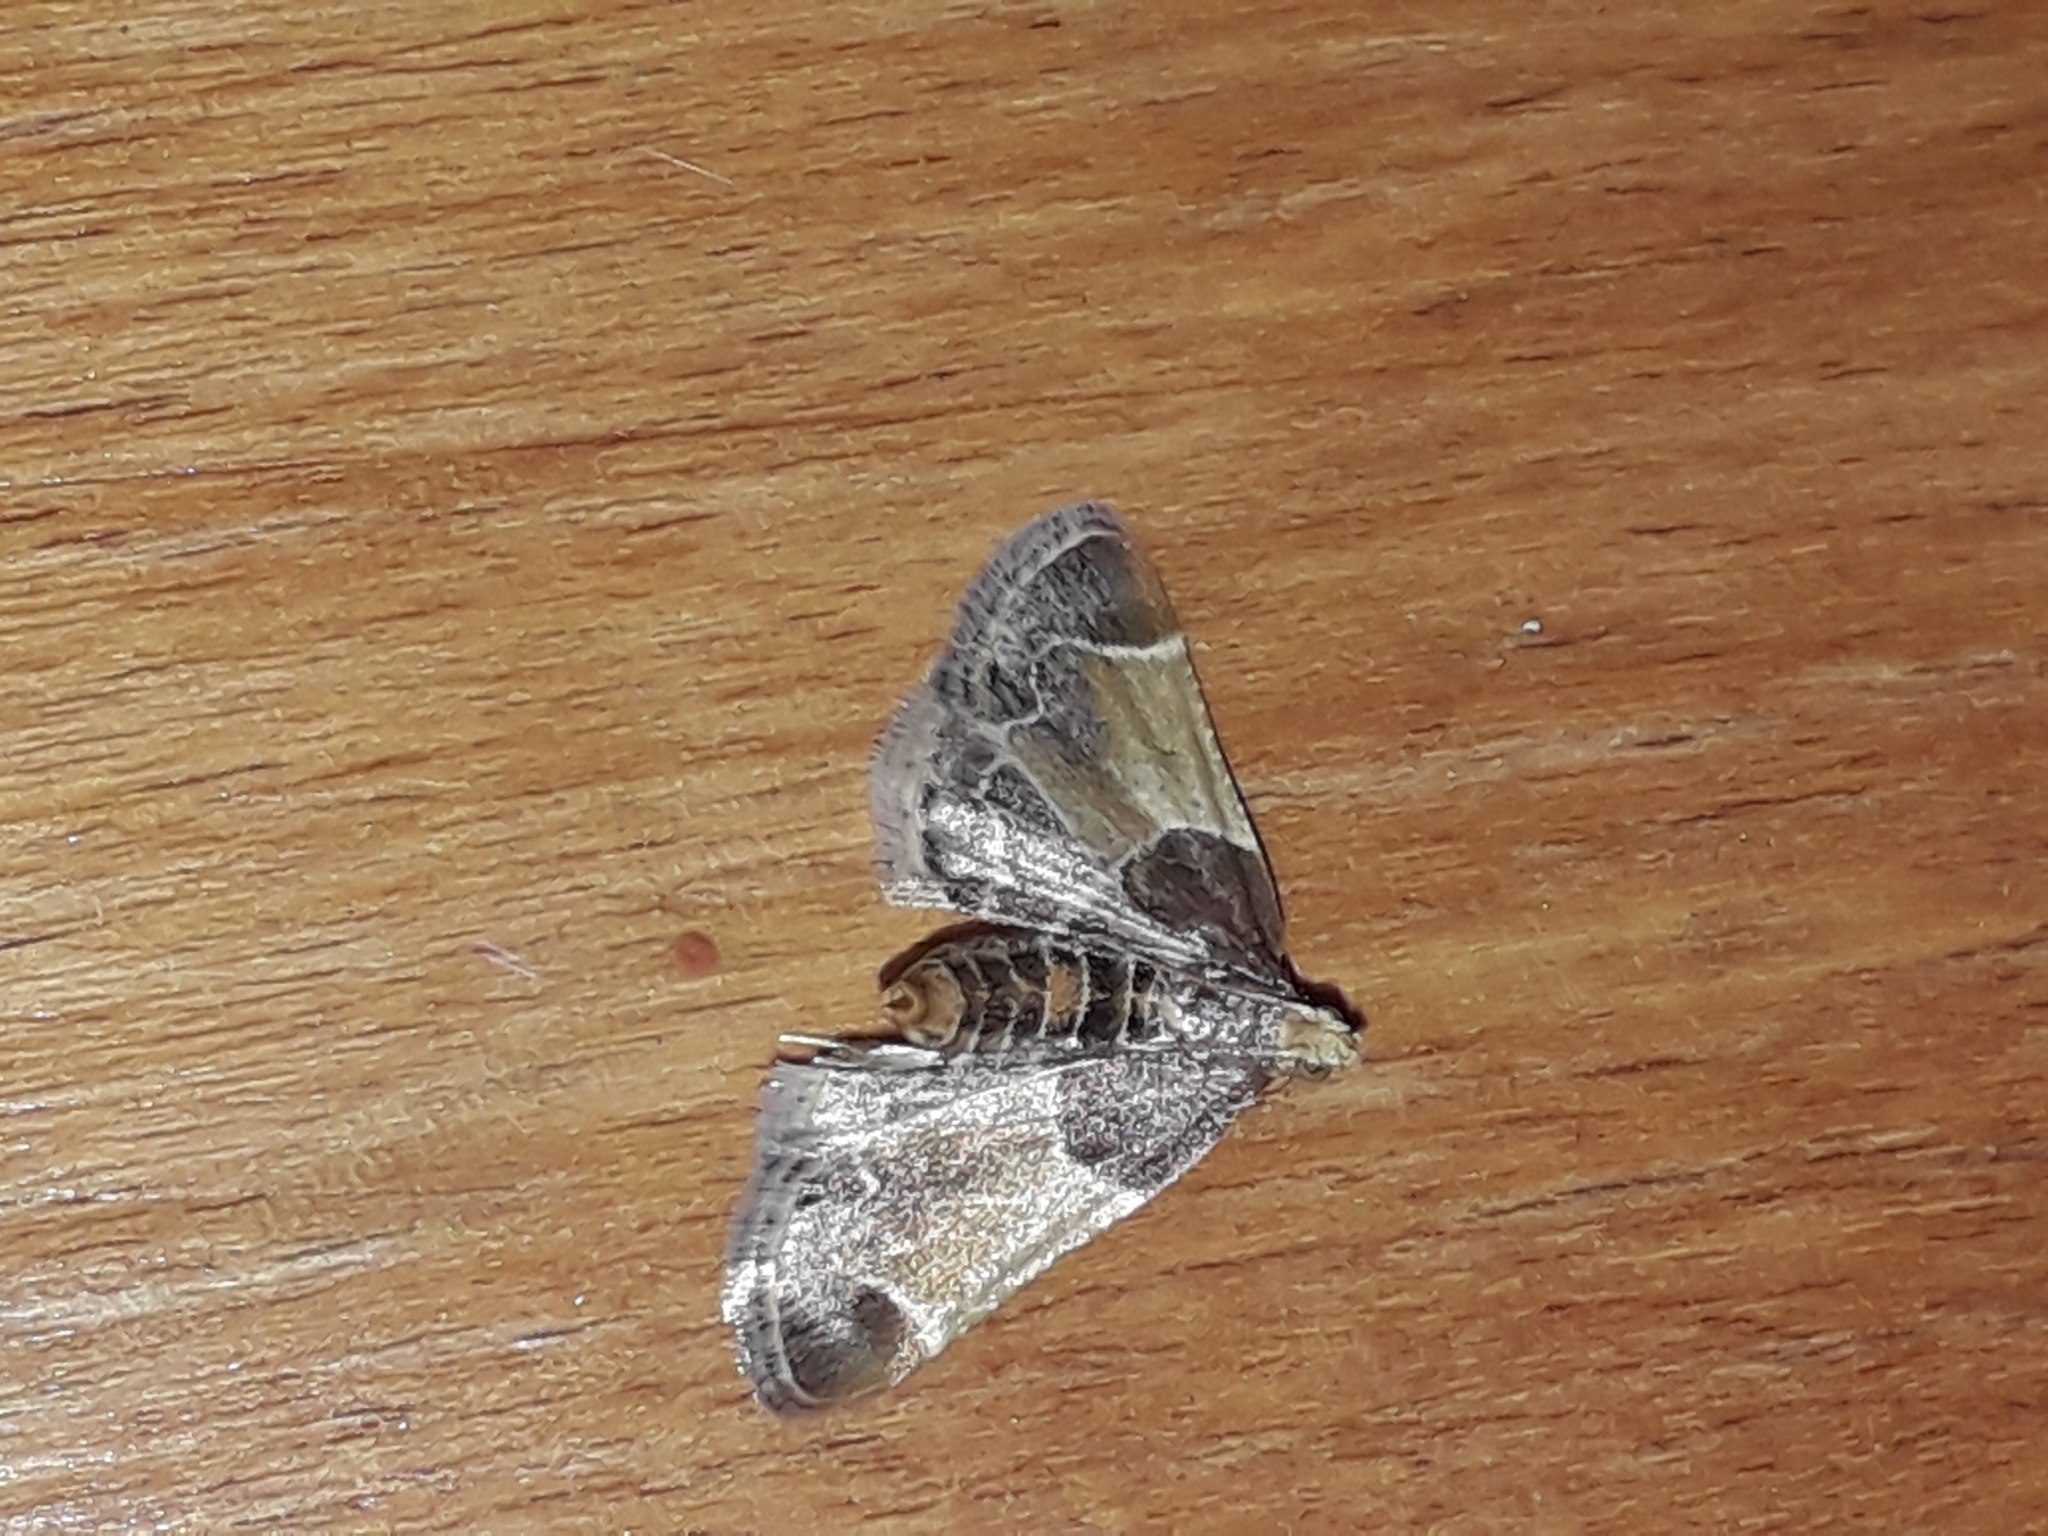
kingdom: Animalia
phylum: Arthropoda
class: Insecta
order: Lepidoptera
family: Pyralidae
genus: Pyralis
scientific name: Pyralis farinalis
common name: Meal moth
